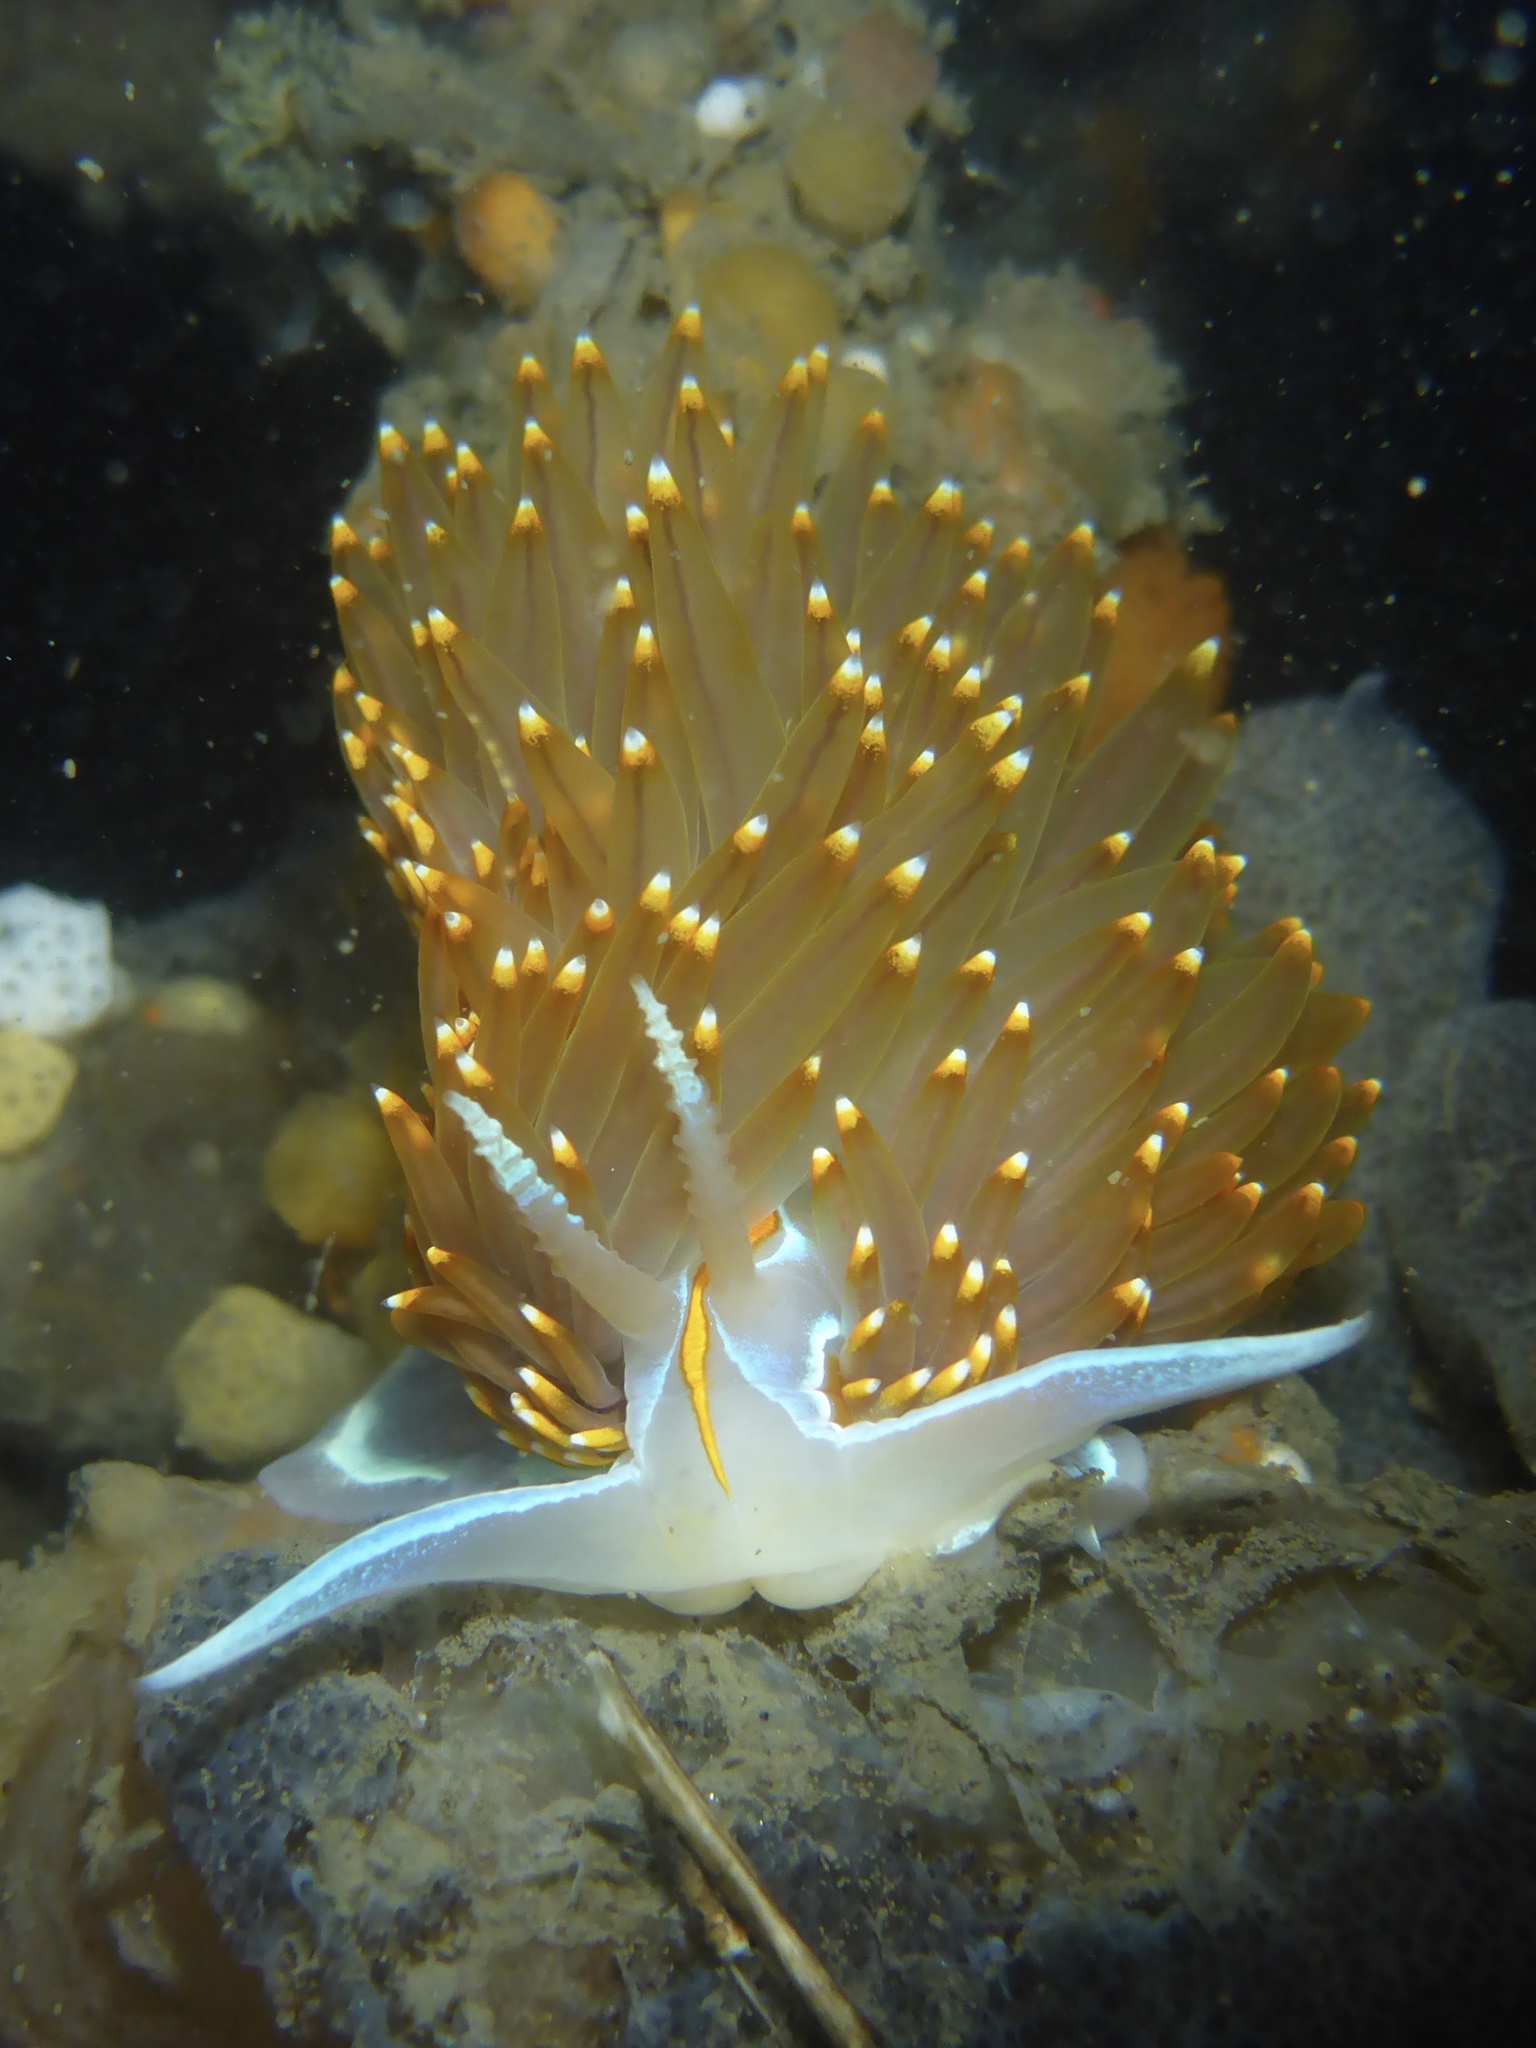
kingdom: Animalia
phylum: Mollusca
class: Gastropoda
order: Nudibranchia
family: Myrrhinidae
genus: Hermissenda
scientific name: Hermissenda opalescens
